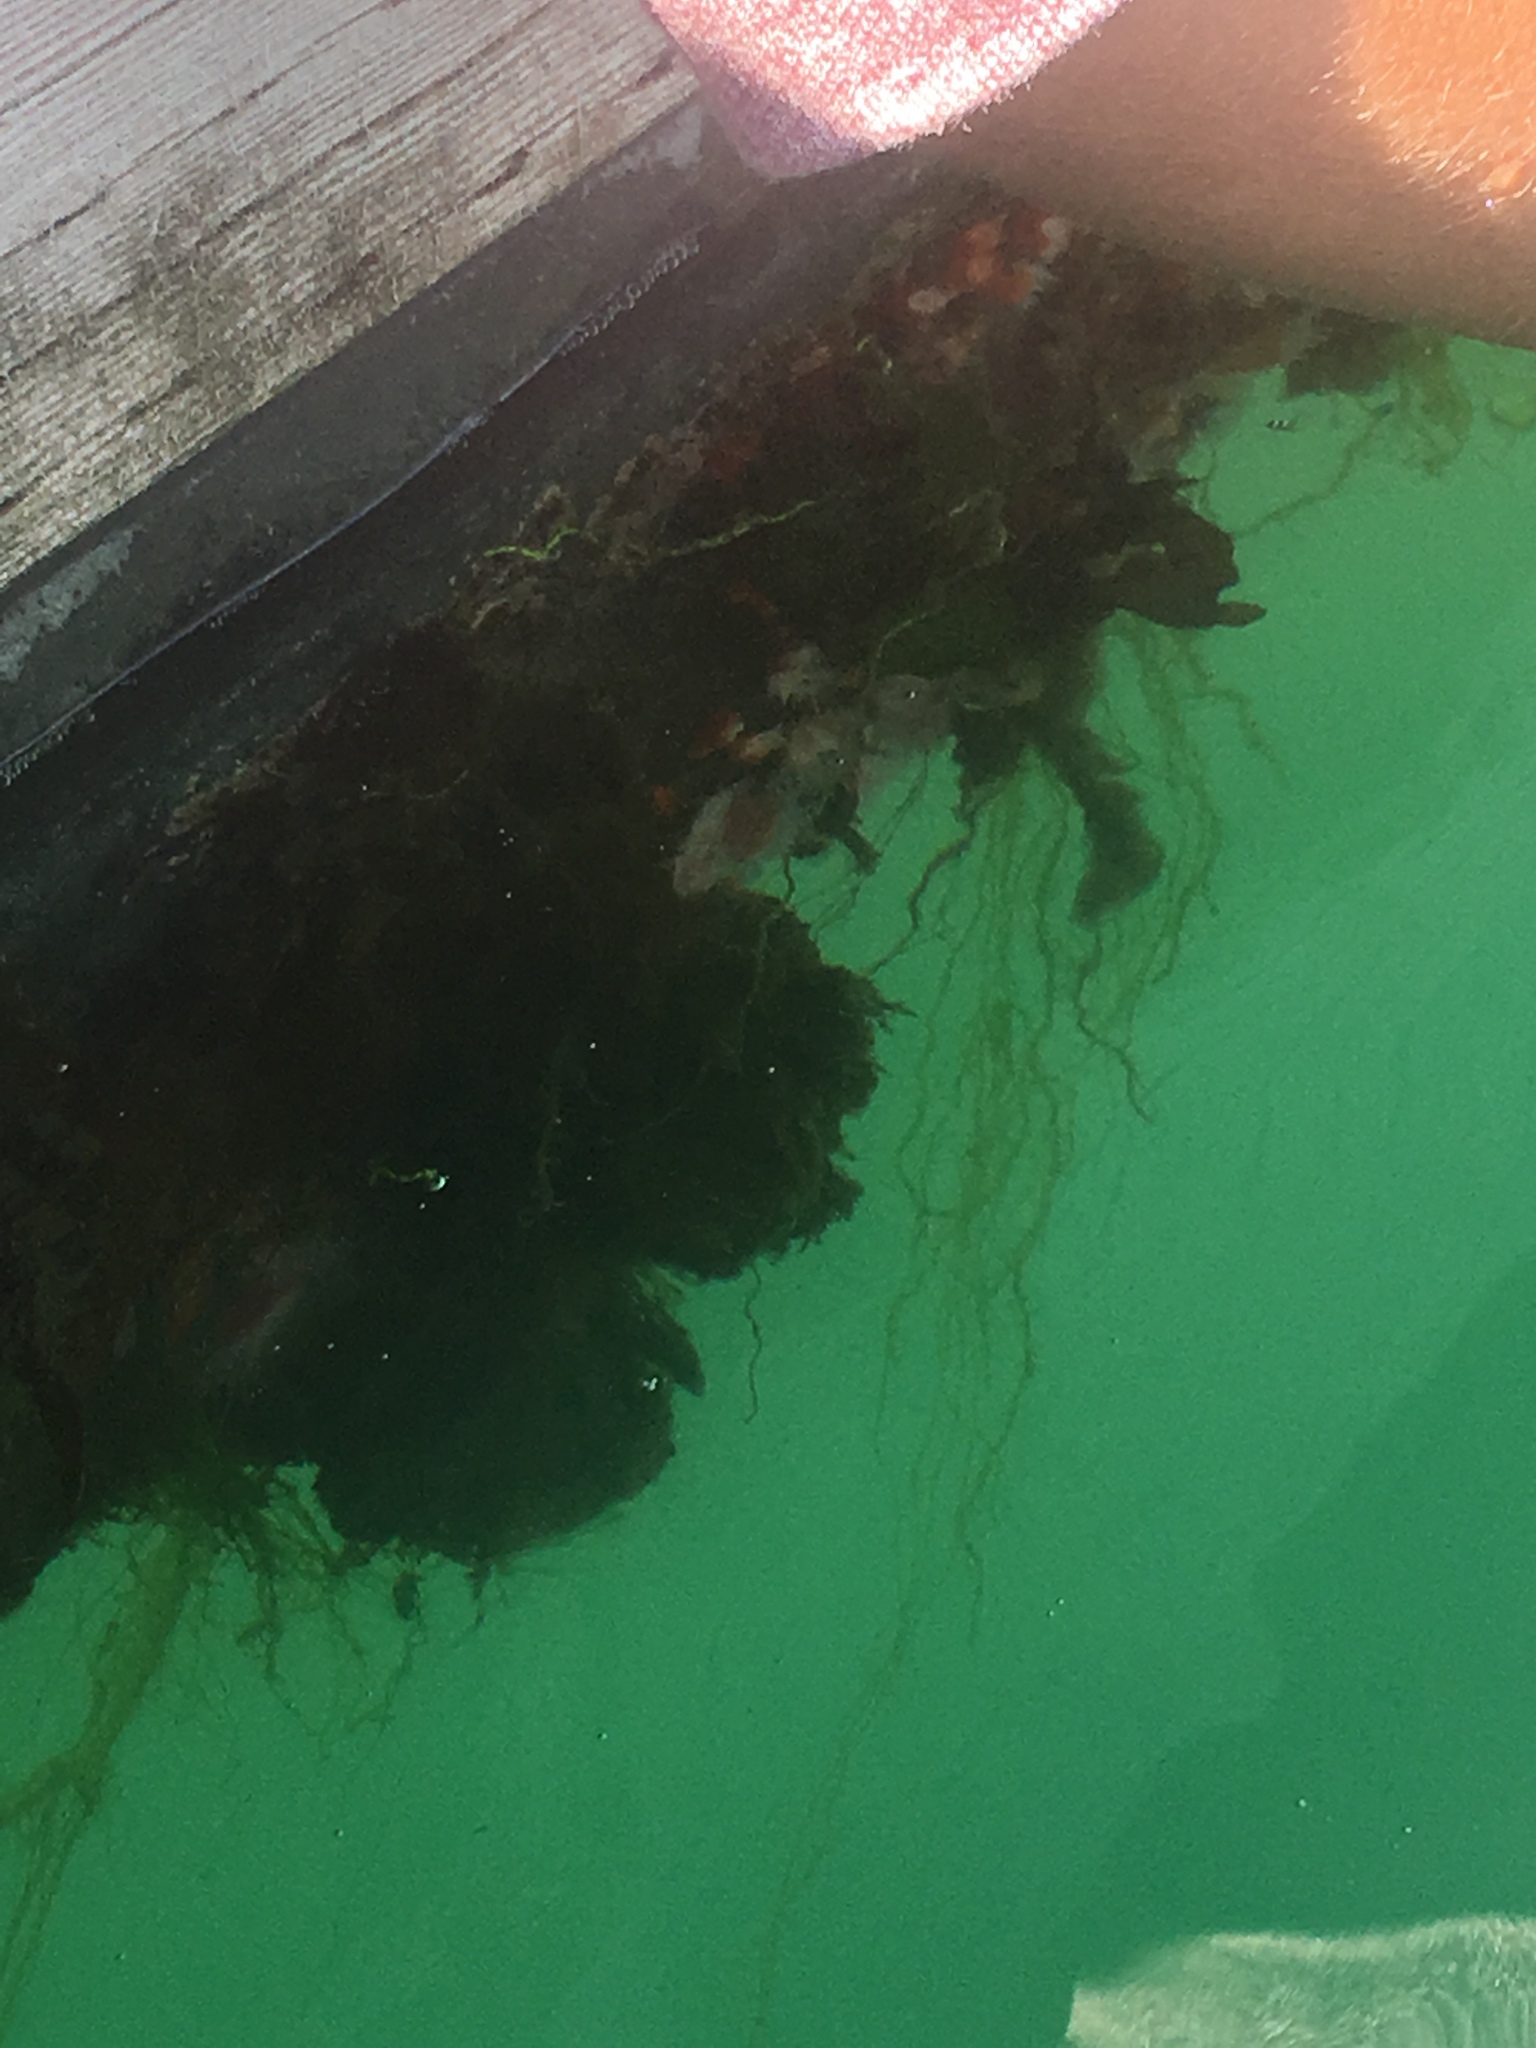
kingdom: Animalia
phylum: Cnidaria
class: Anthozoa
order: Corallimorpharia
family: Corallimorphidae
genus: Corynactis
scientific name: Corynactis californica
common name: Strawberry corallimorpharian
